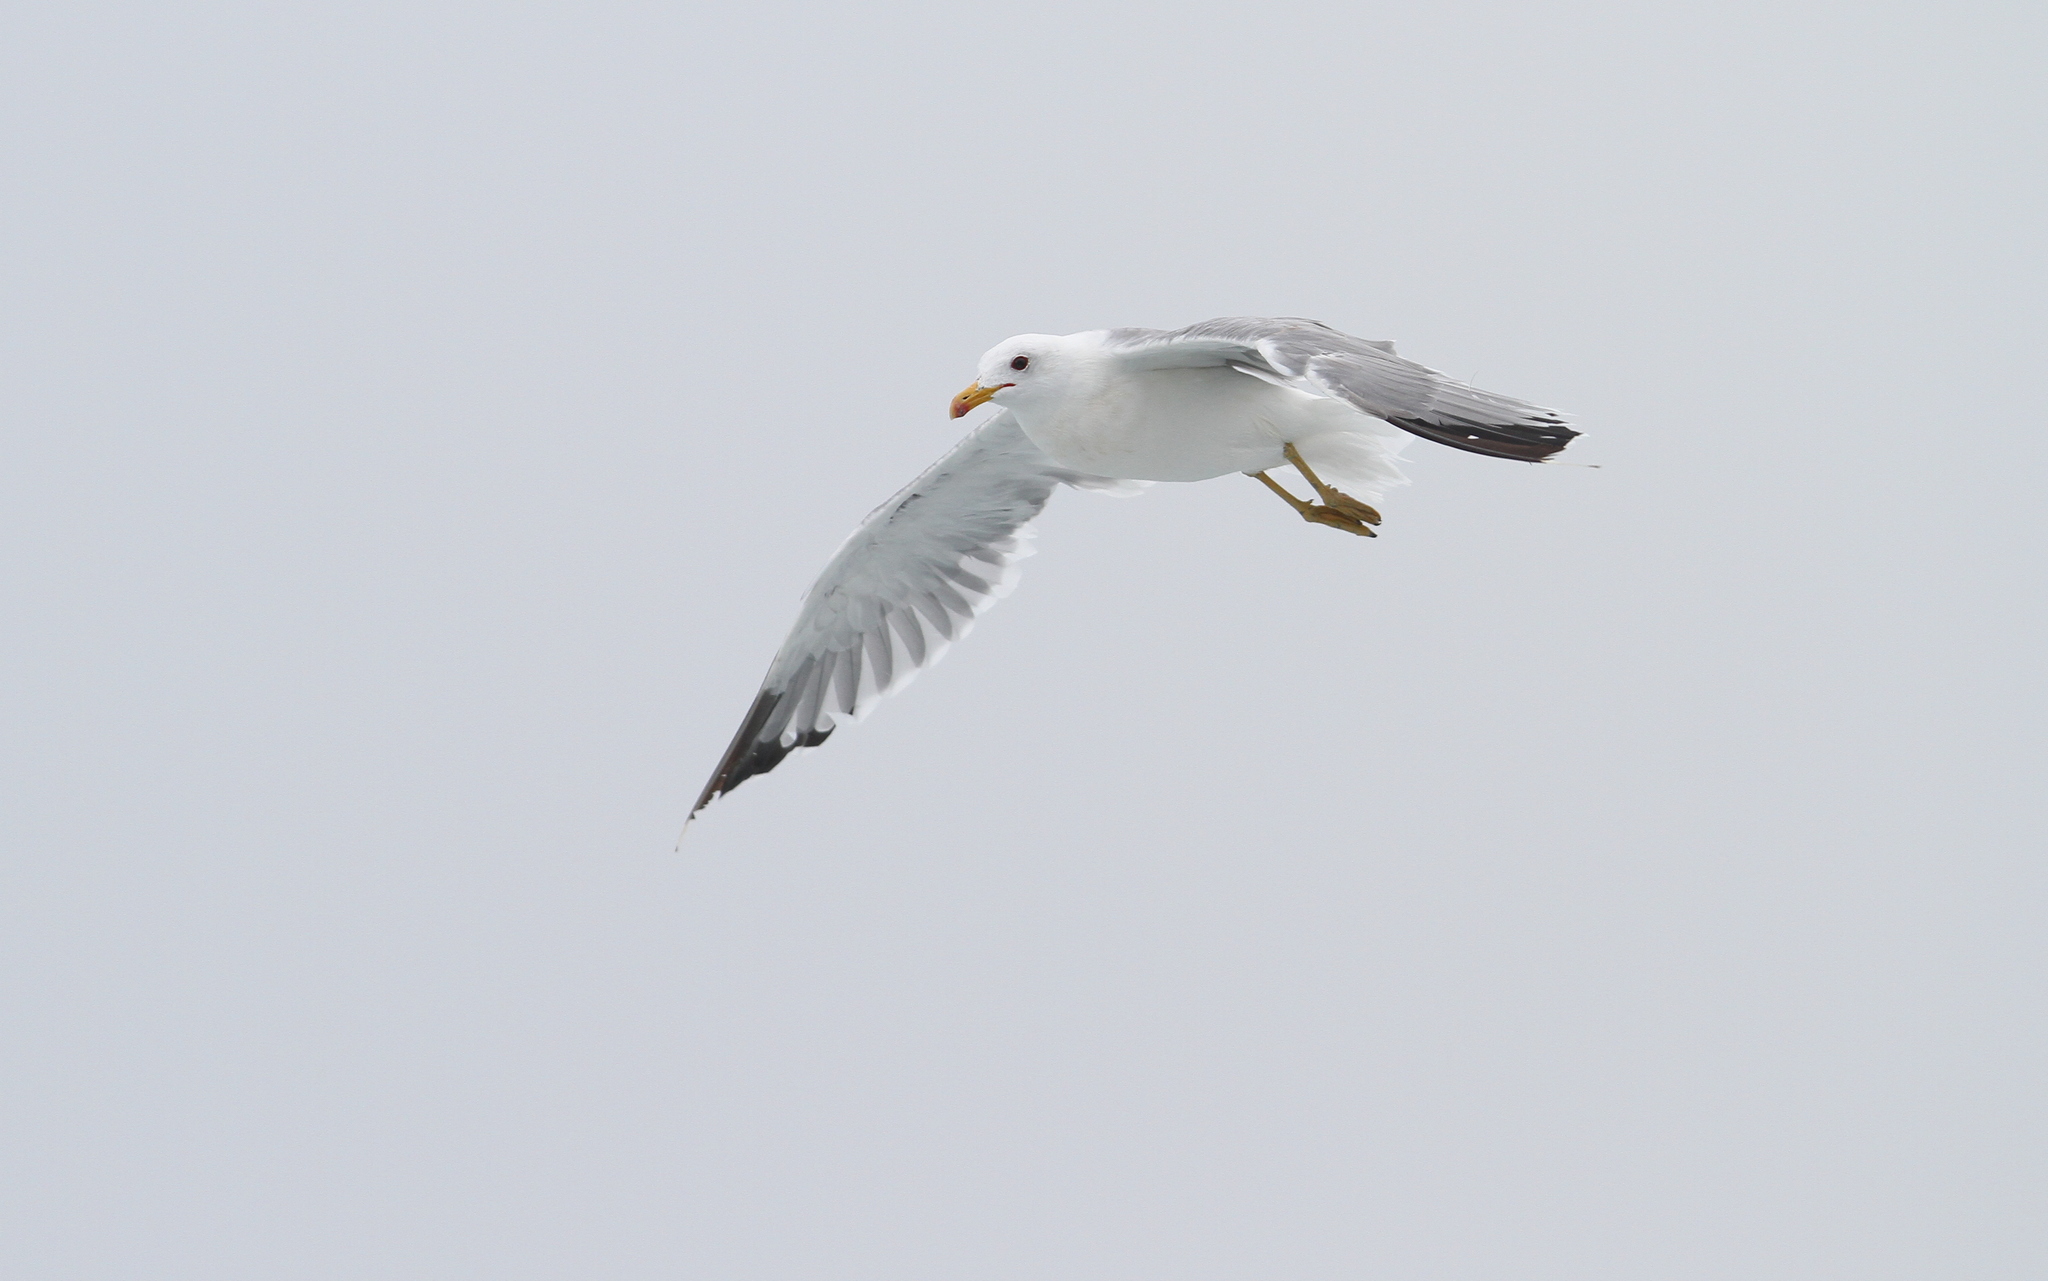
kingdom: Animalia
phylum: Chordata
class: Aves
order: Charadriiformes
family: Laridae
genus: Larus
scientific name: Larus californicus
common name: California gull
